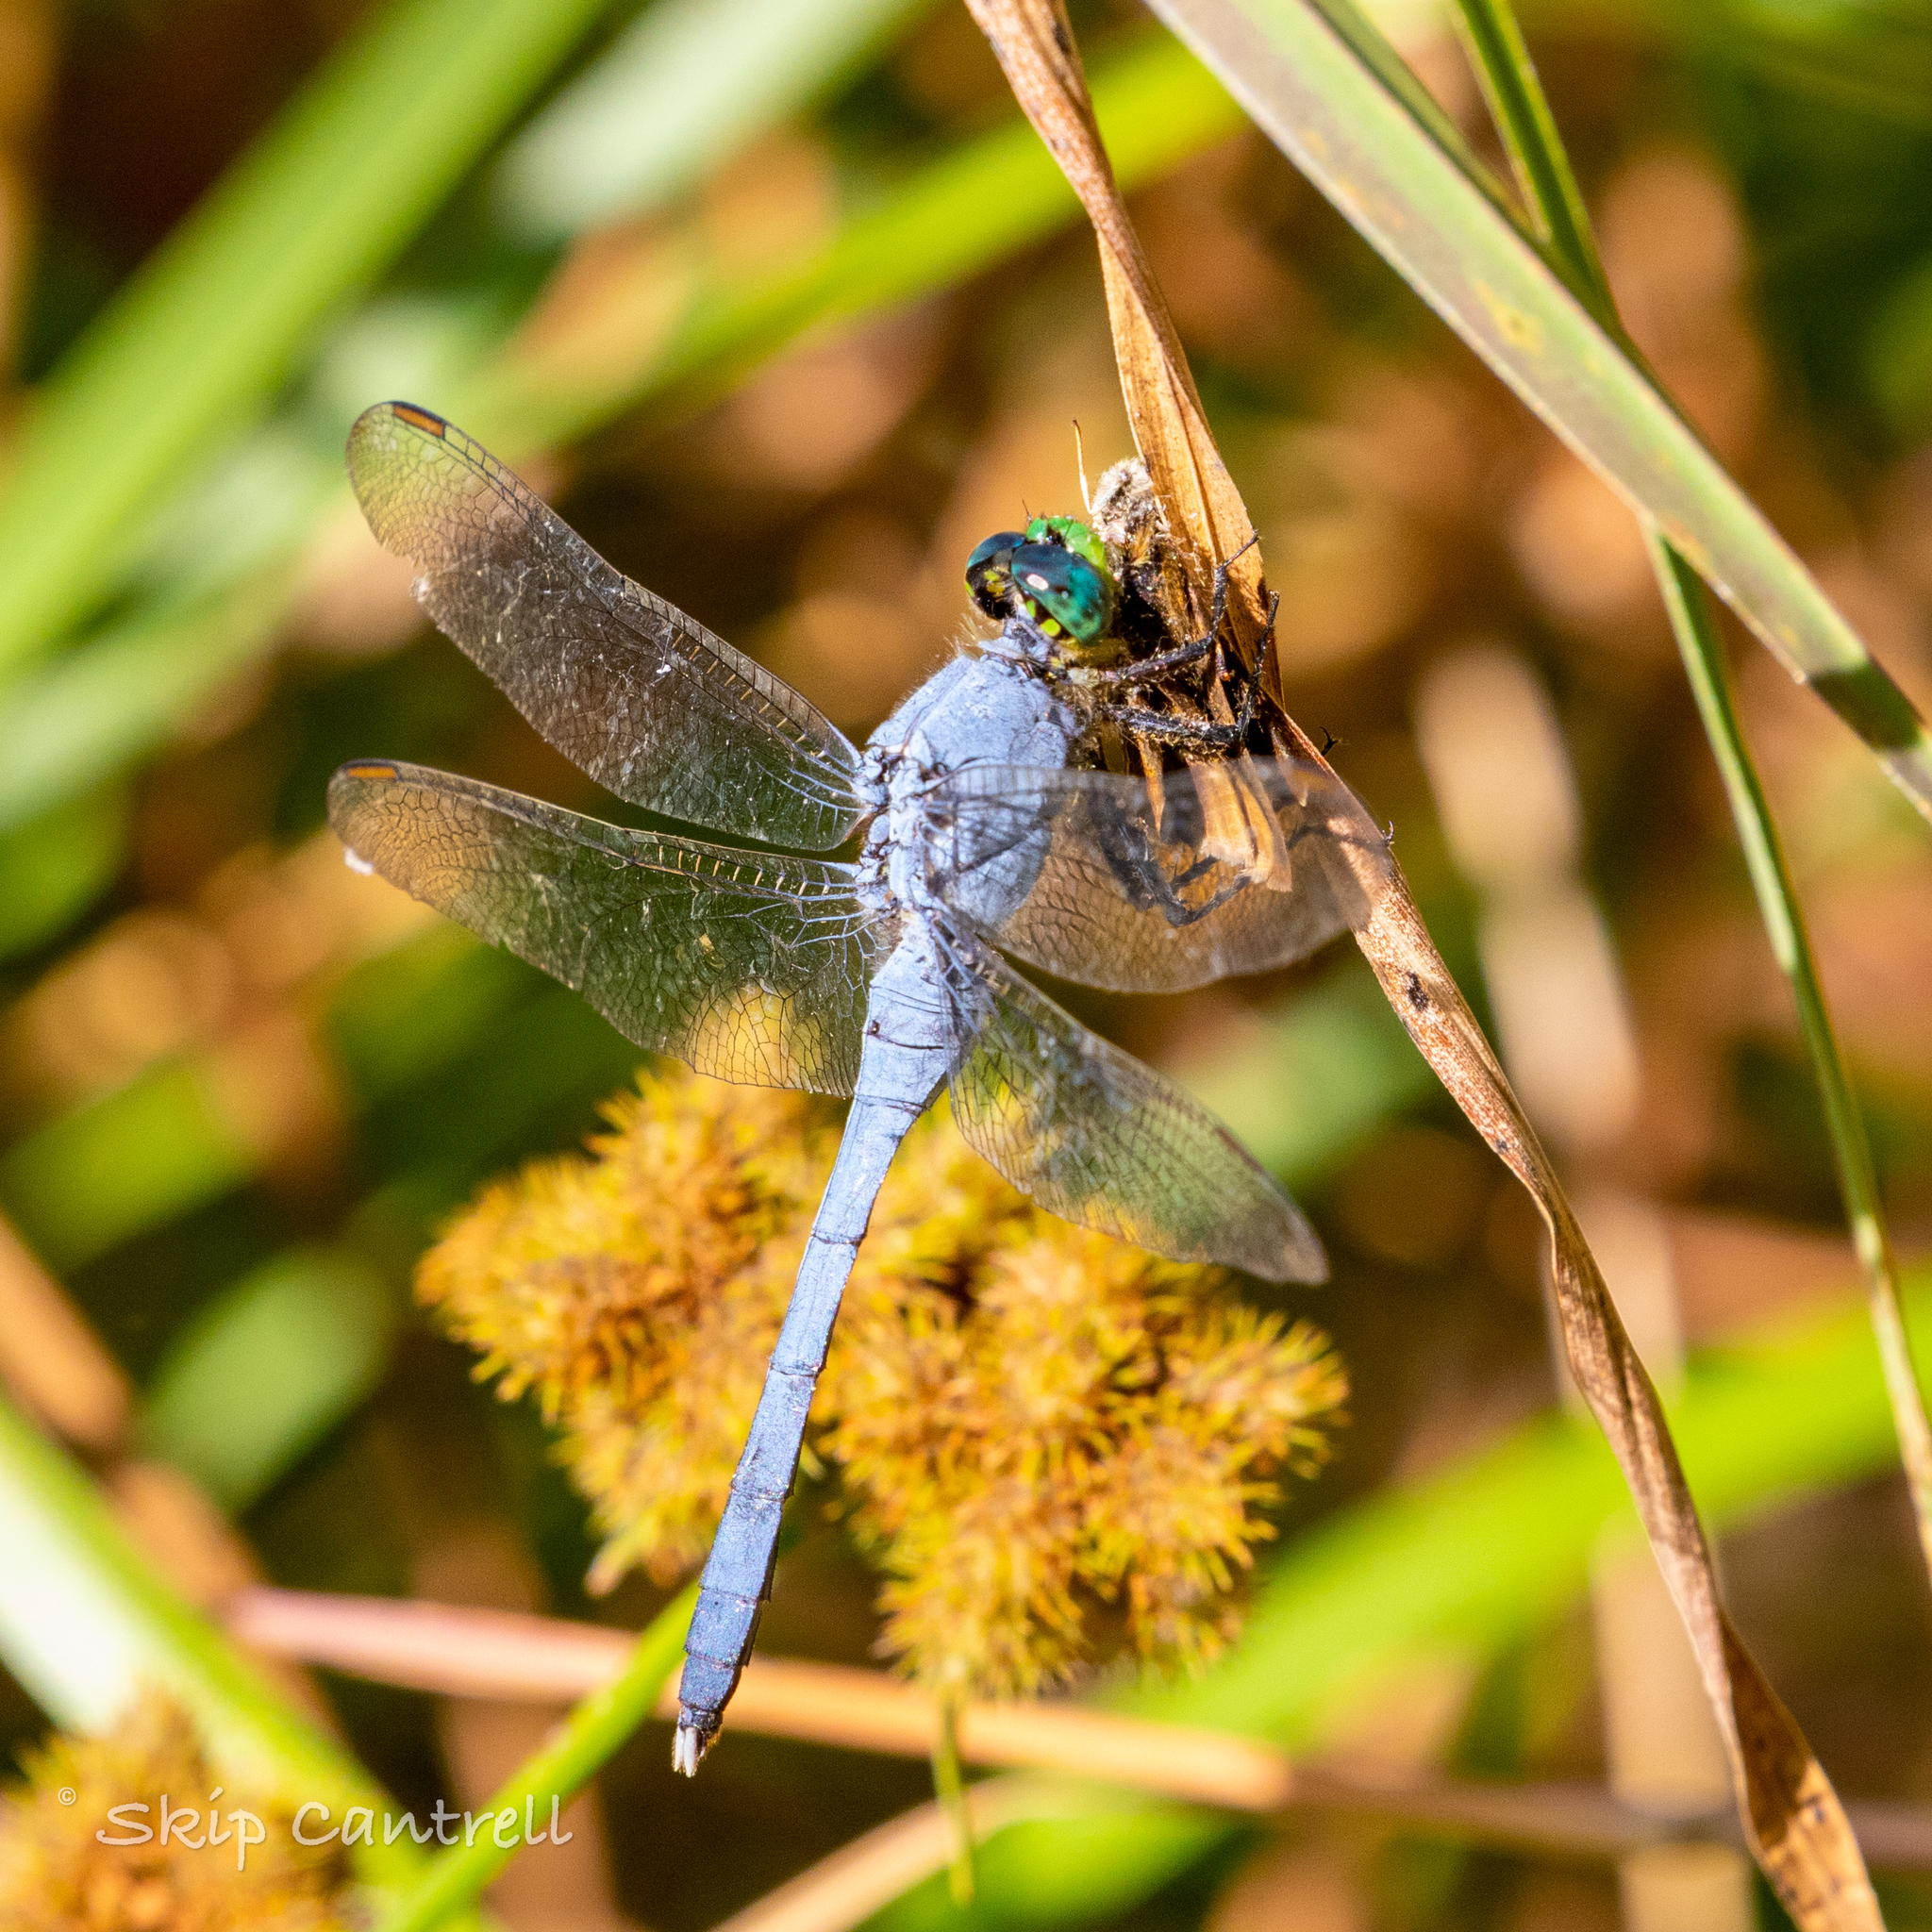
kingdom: Animalia
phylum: Arthropoda
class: Insecta
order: Odonata
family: Libellulidae
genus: Erythemis
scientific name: Erythemis simplicicollis
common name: Eastern pondhawk
